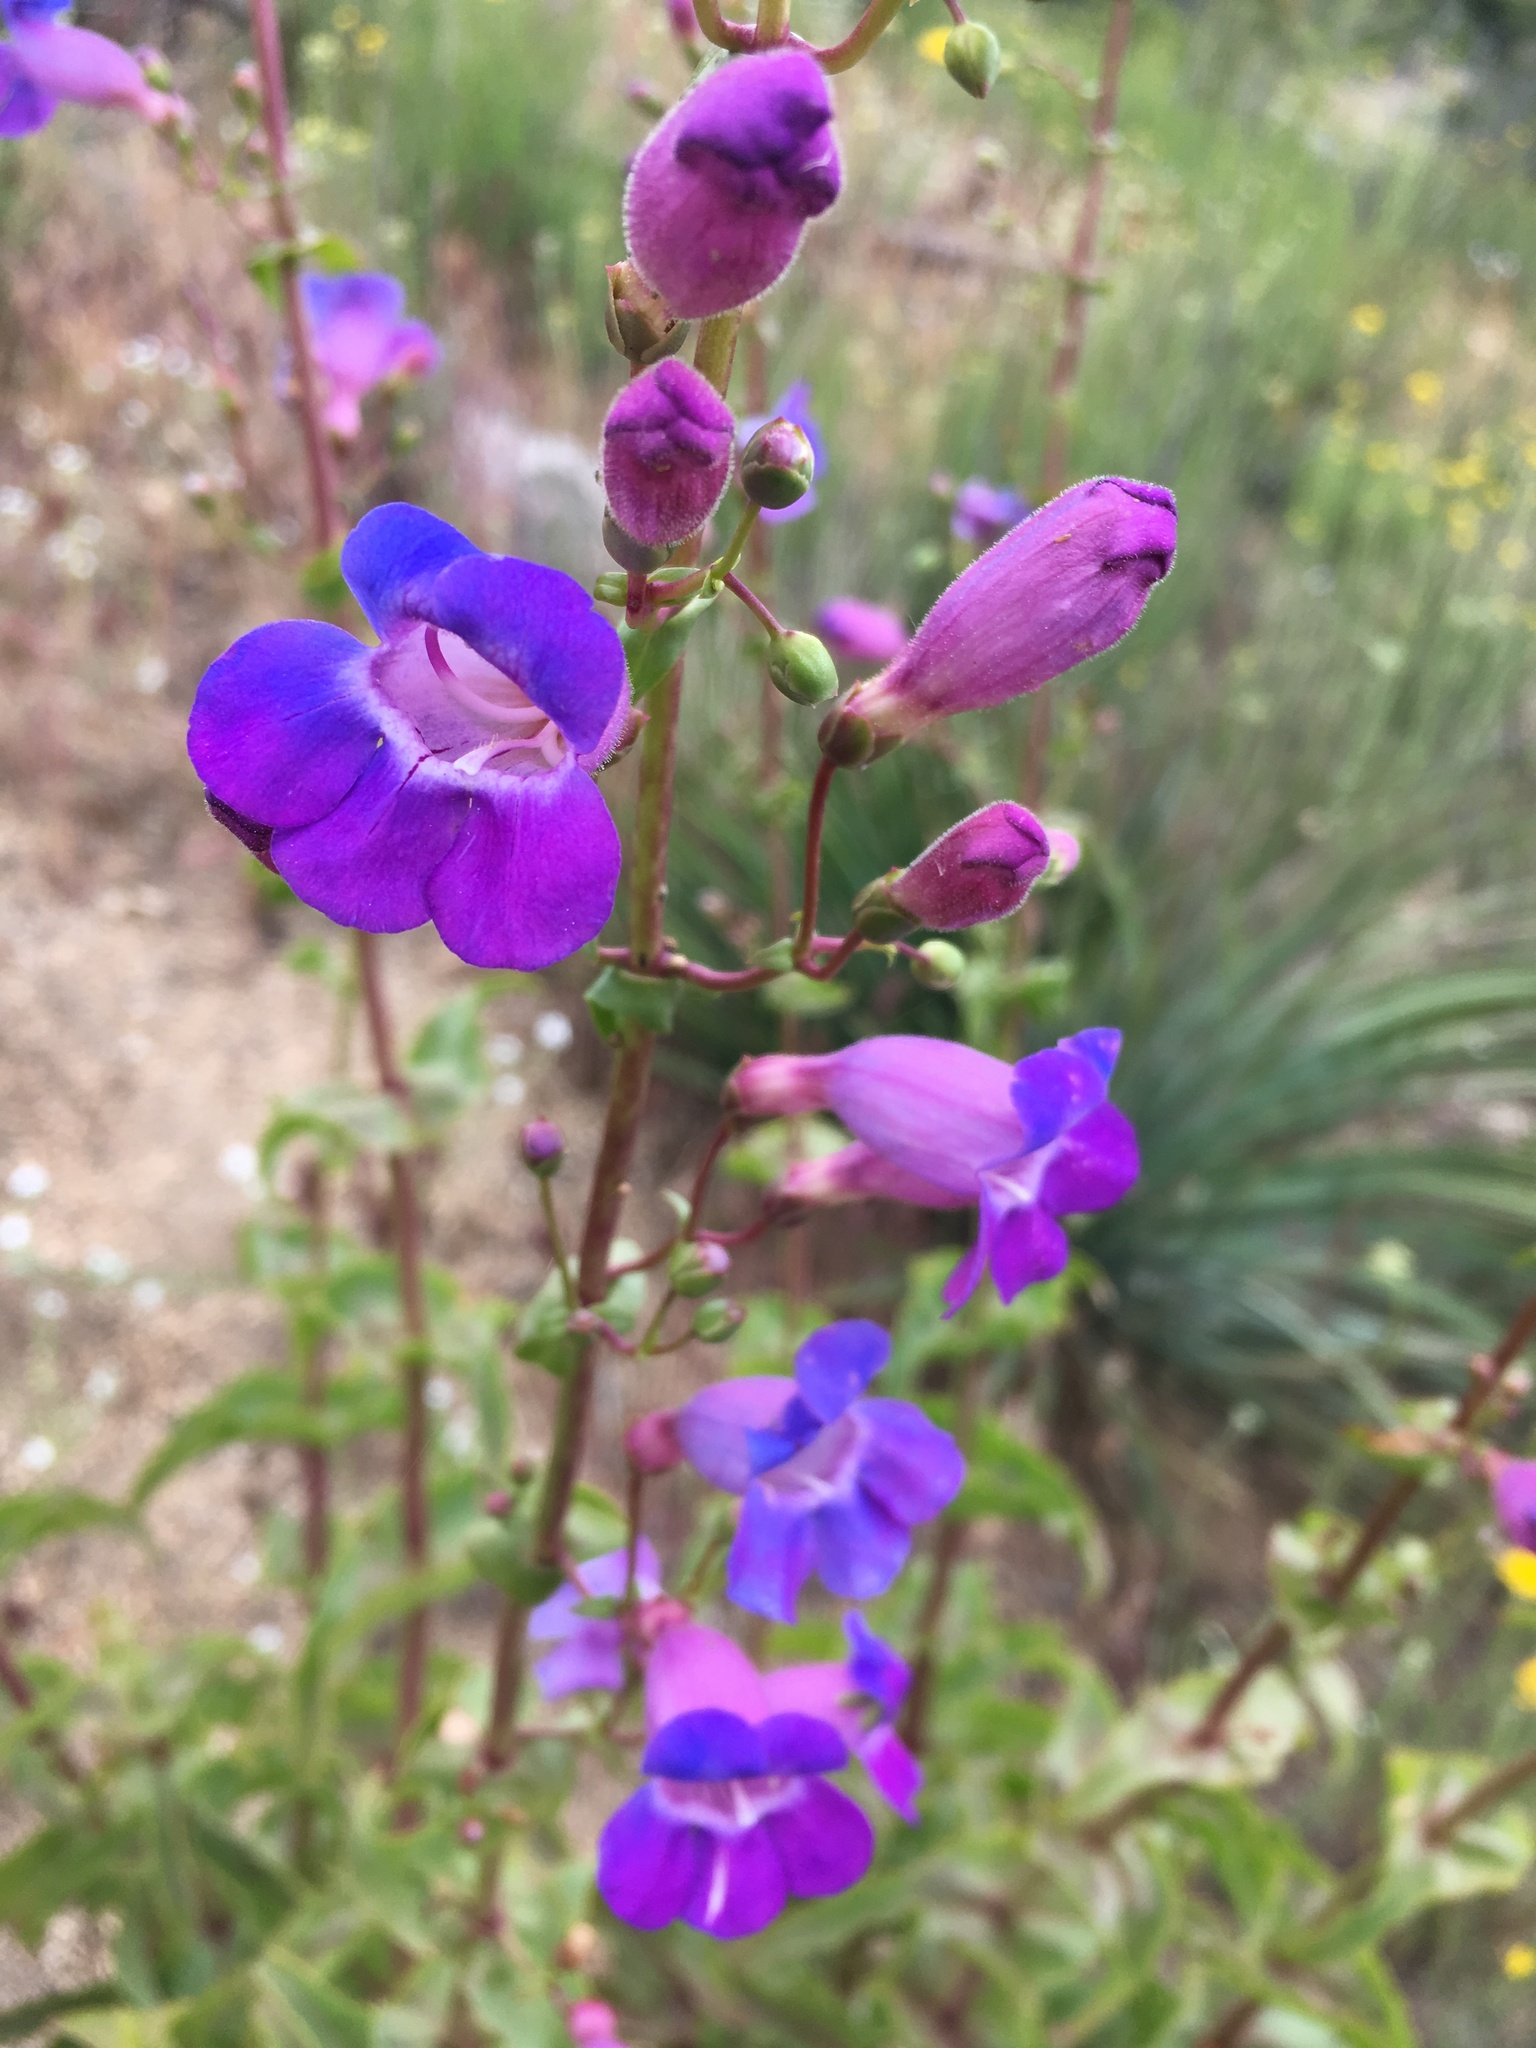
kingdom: Plantae
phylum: Tracheophyta
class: Magnoliopsida
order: Lamiales
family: Plantaginaceae
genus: Penstemon
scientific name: Penstemon spectabilis
